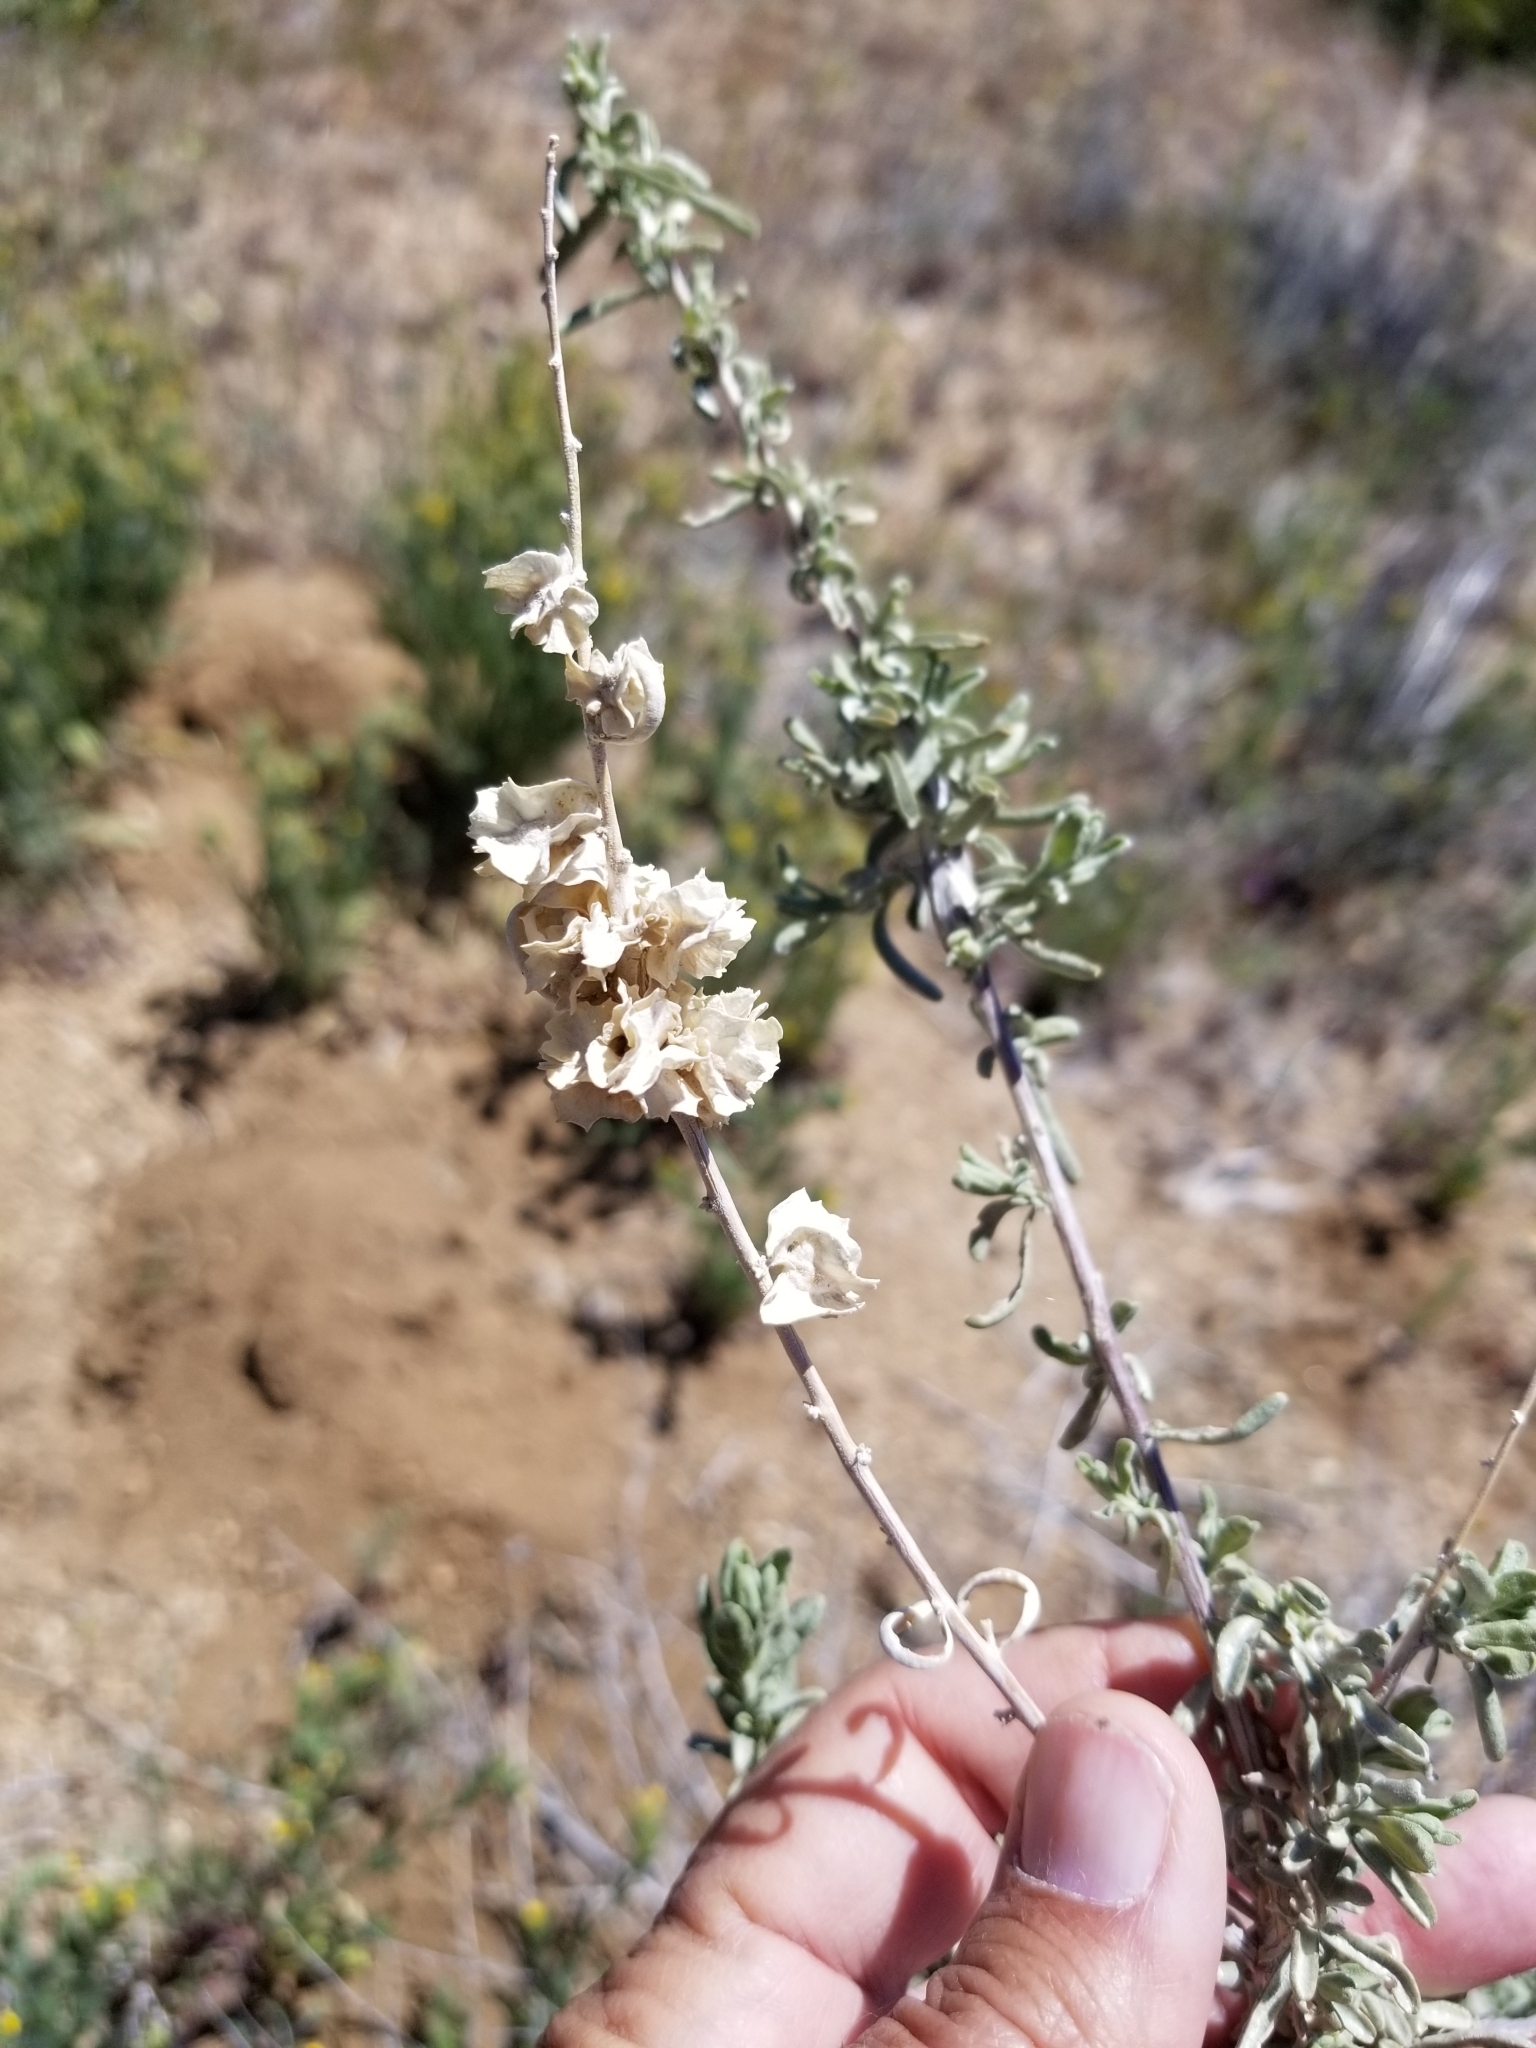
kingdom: Plantae
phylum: Tracheophyta
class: Magnoliopsida
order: Caryophyllales
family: Amaranthaceae
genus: Atriplex
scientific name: Atriplex canescens
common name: Four-wing saltbush
